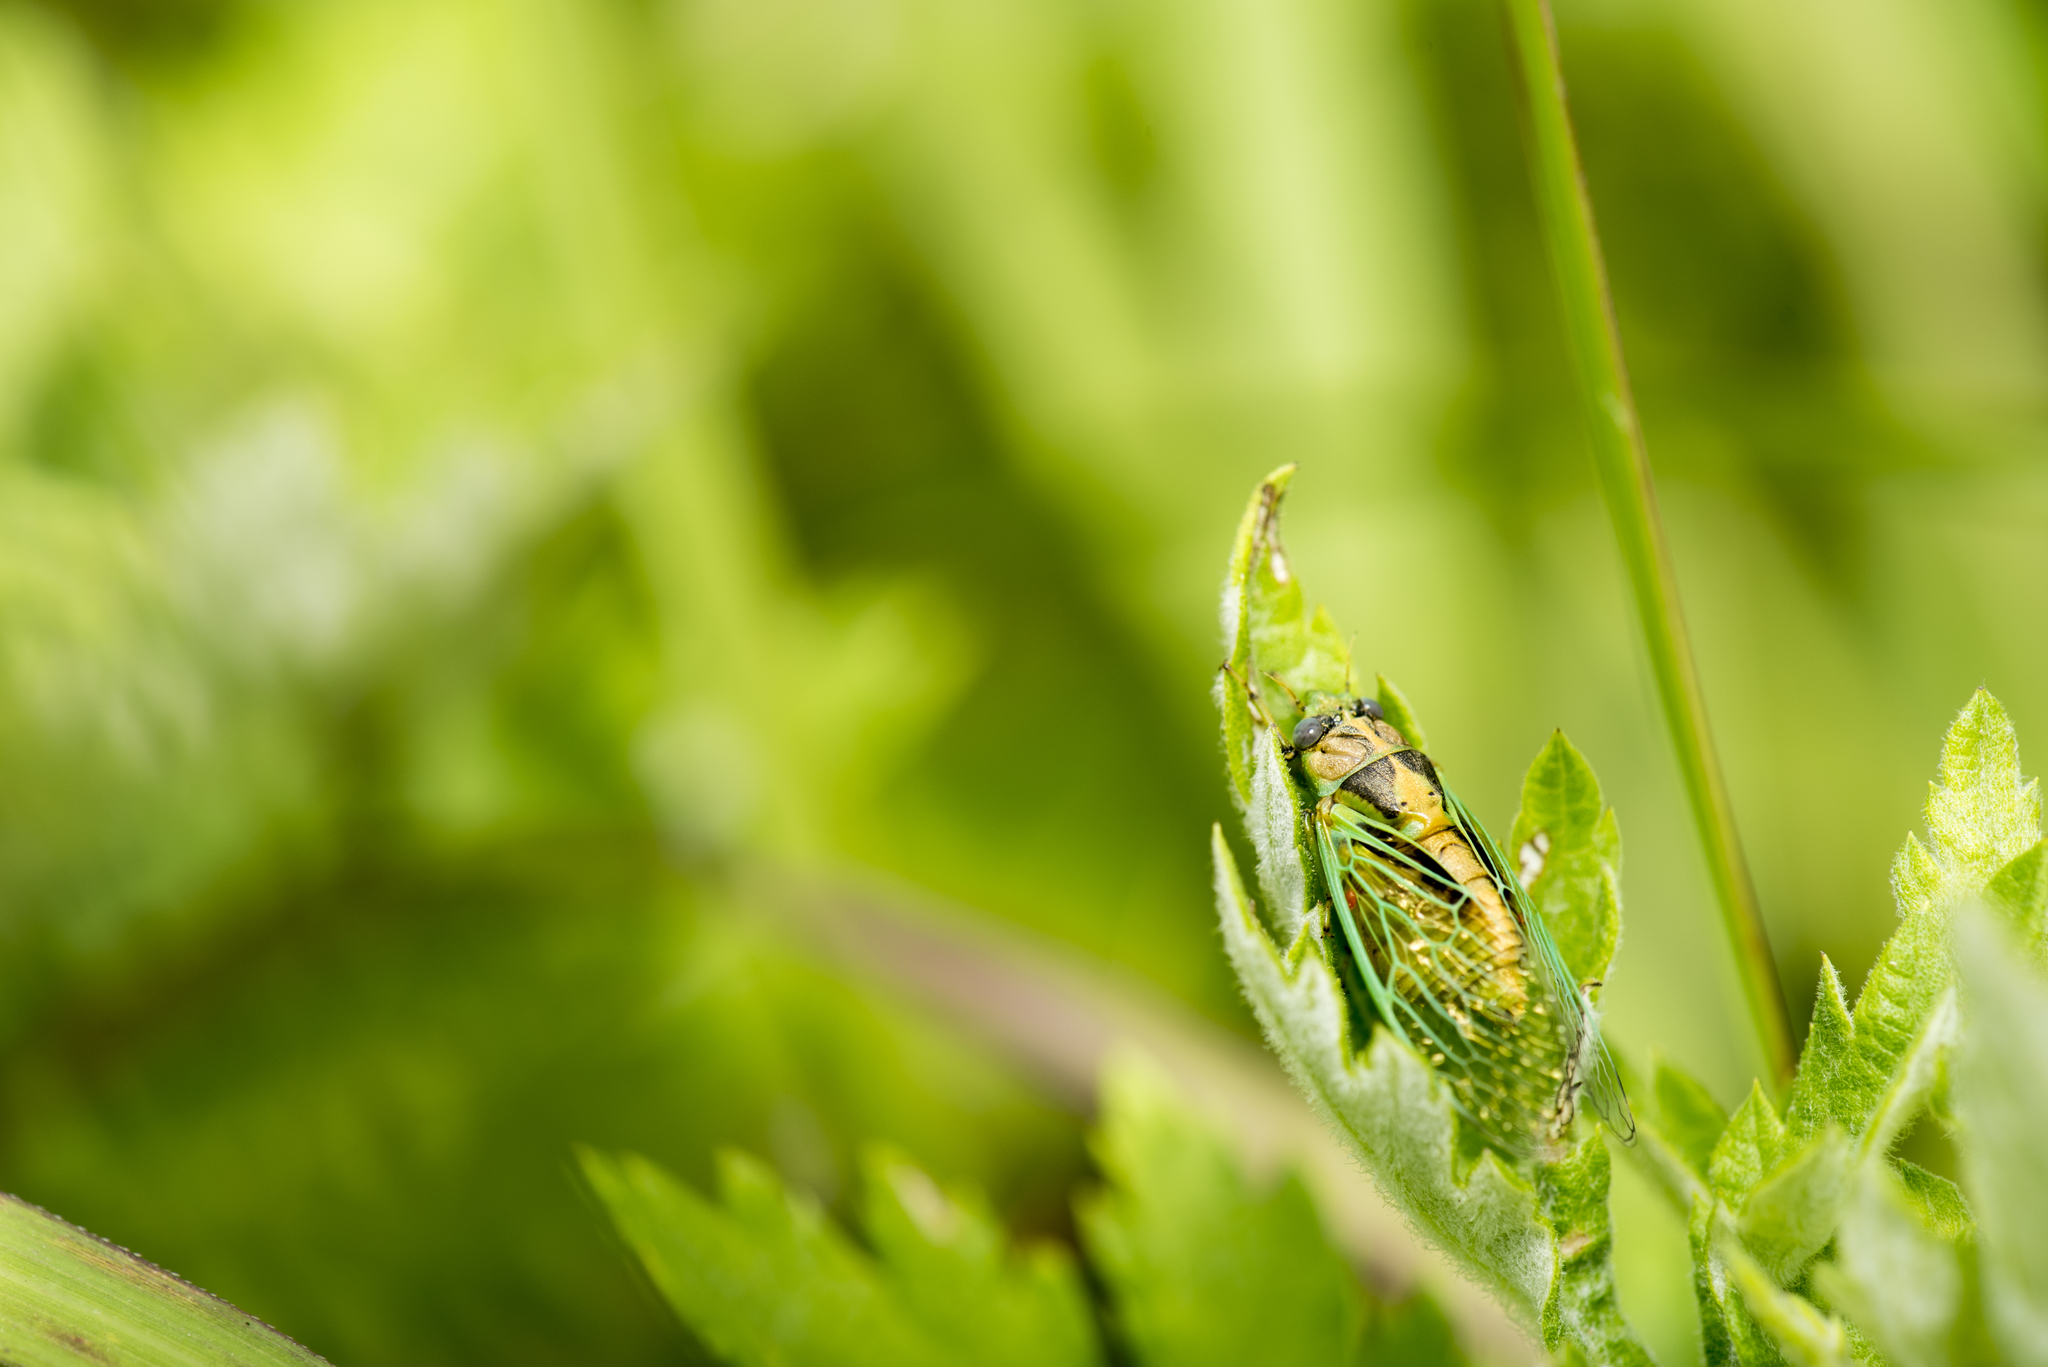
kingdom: Animalia
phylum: Arthropoda
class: Insecta
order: Hemiptera
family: Cicadidae
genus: Mogannia
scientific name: Mogannia hebes
